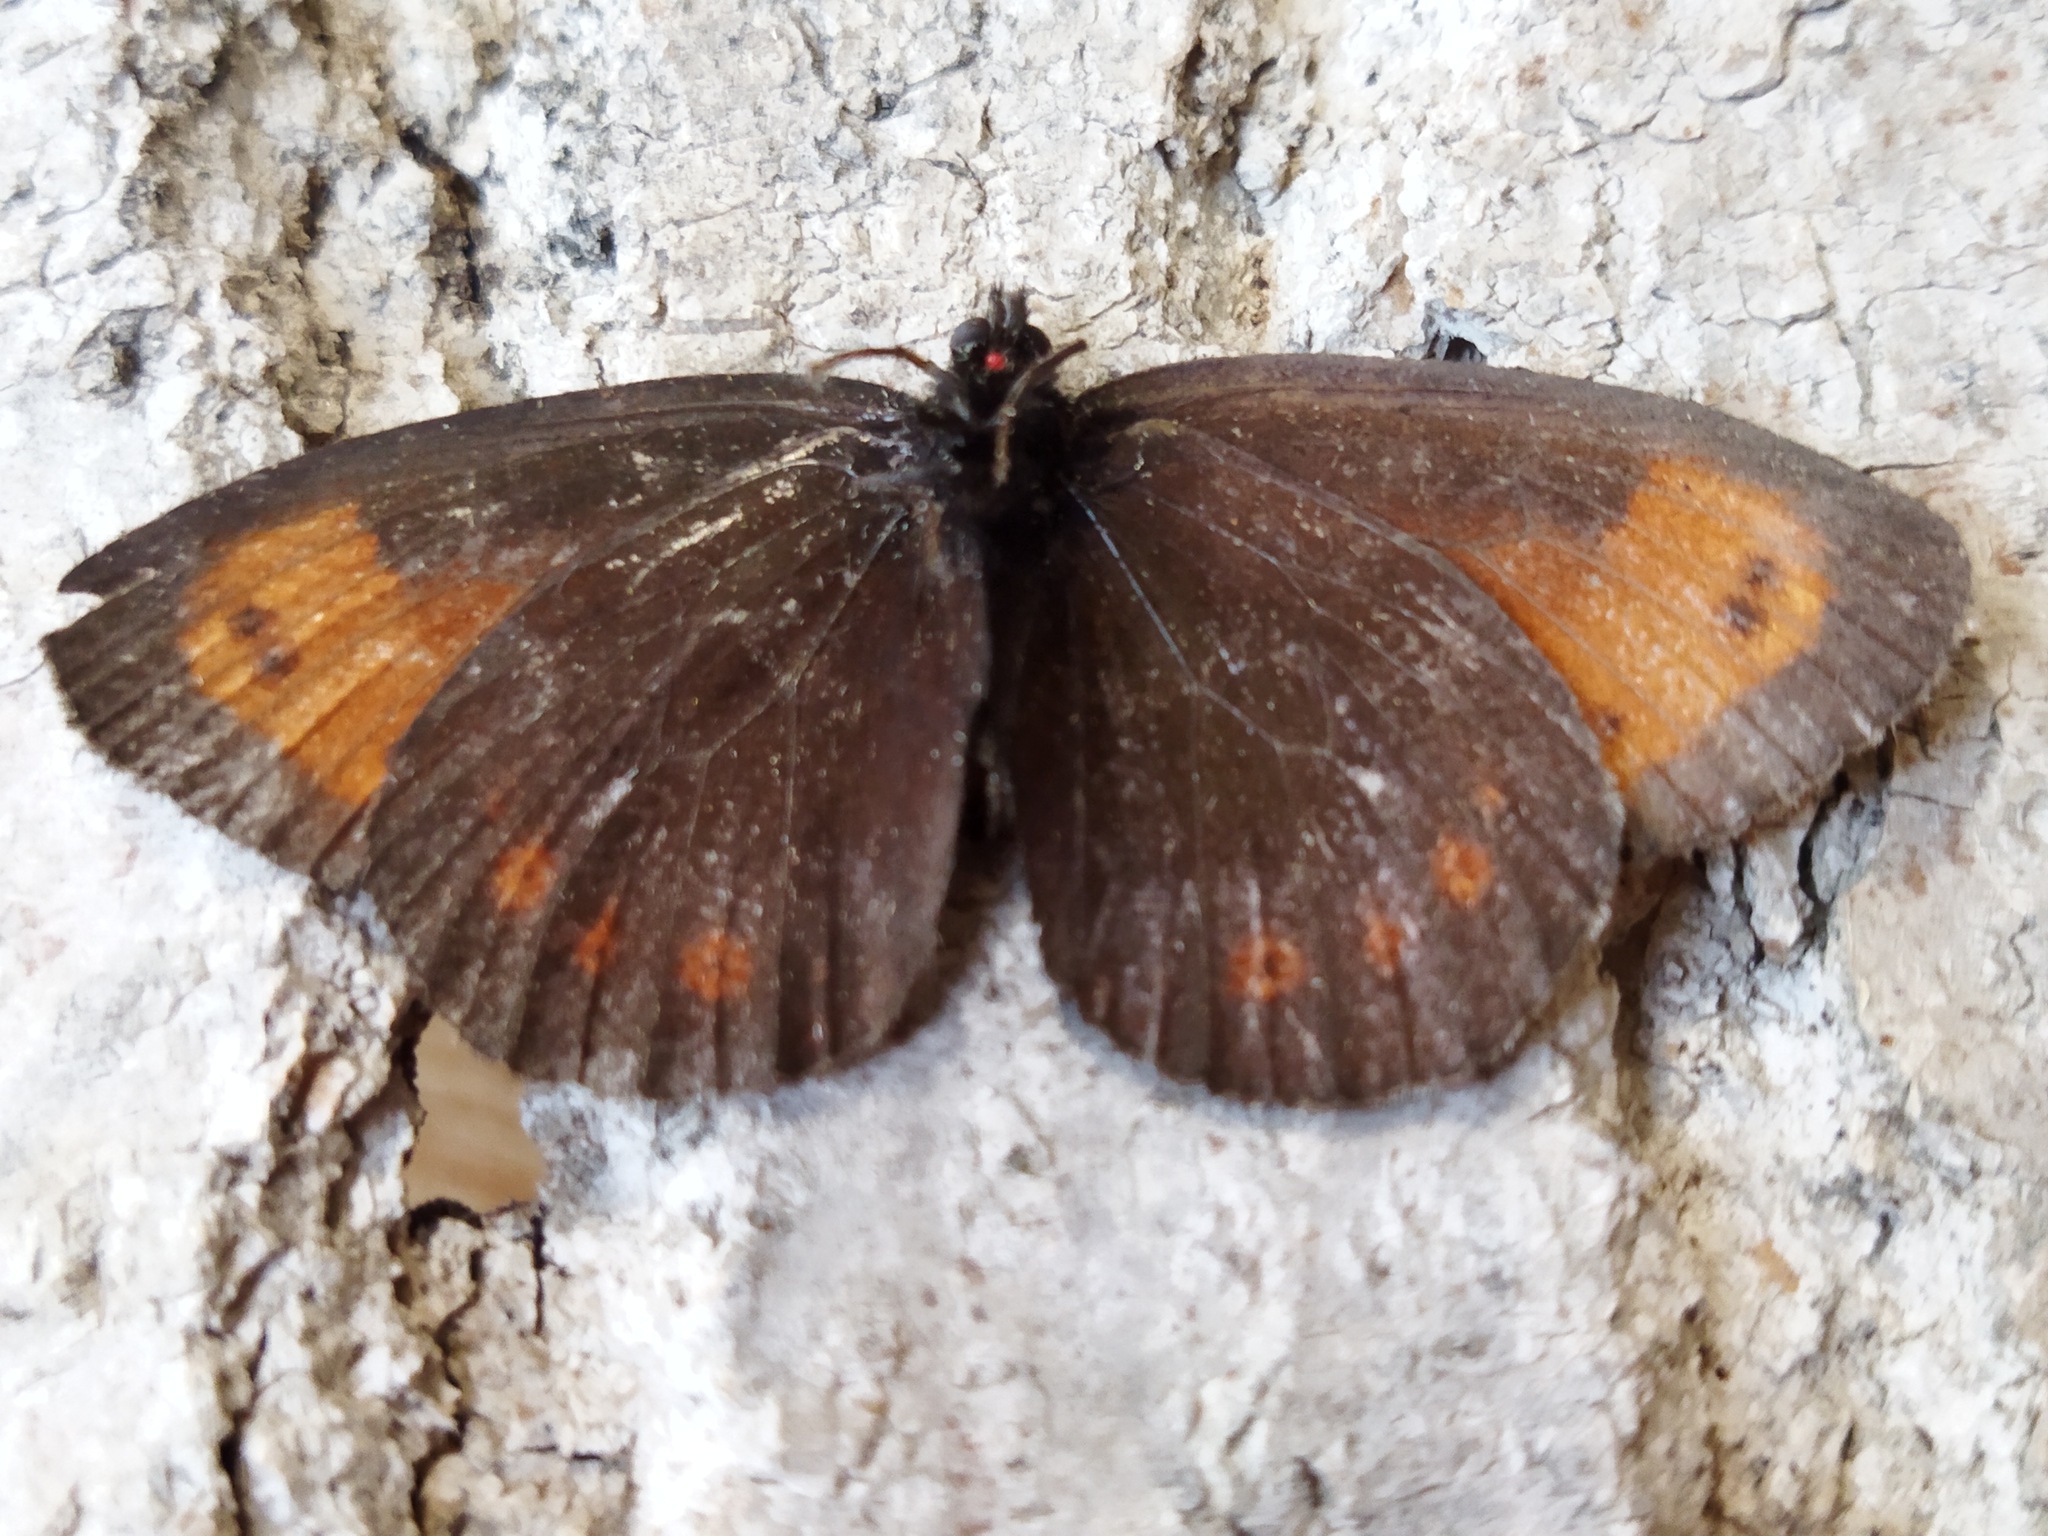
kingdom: Animalia
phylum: Arthropoda
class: Insecta
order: Lepidoptera
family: Nymphalidae
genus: Erebia
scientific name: Erebia euryale
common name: Large ringlet
